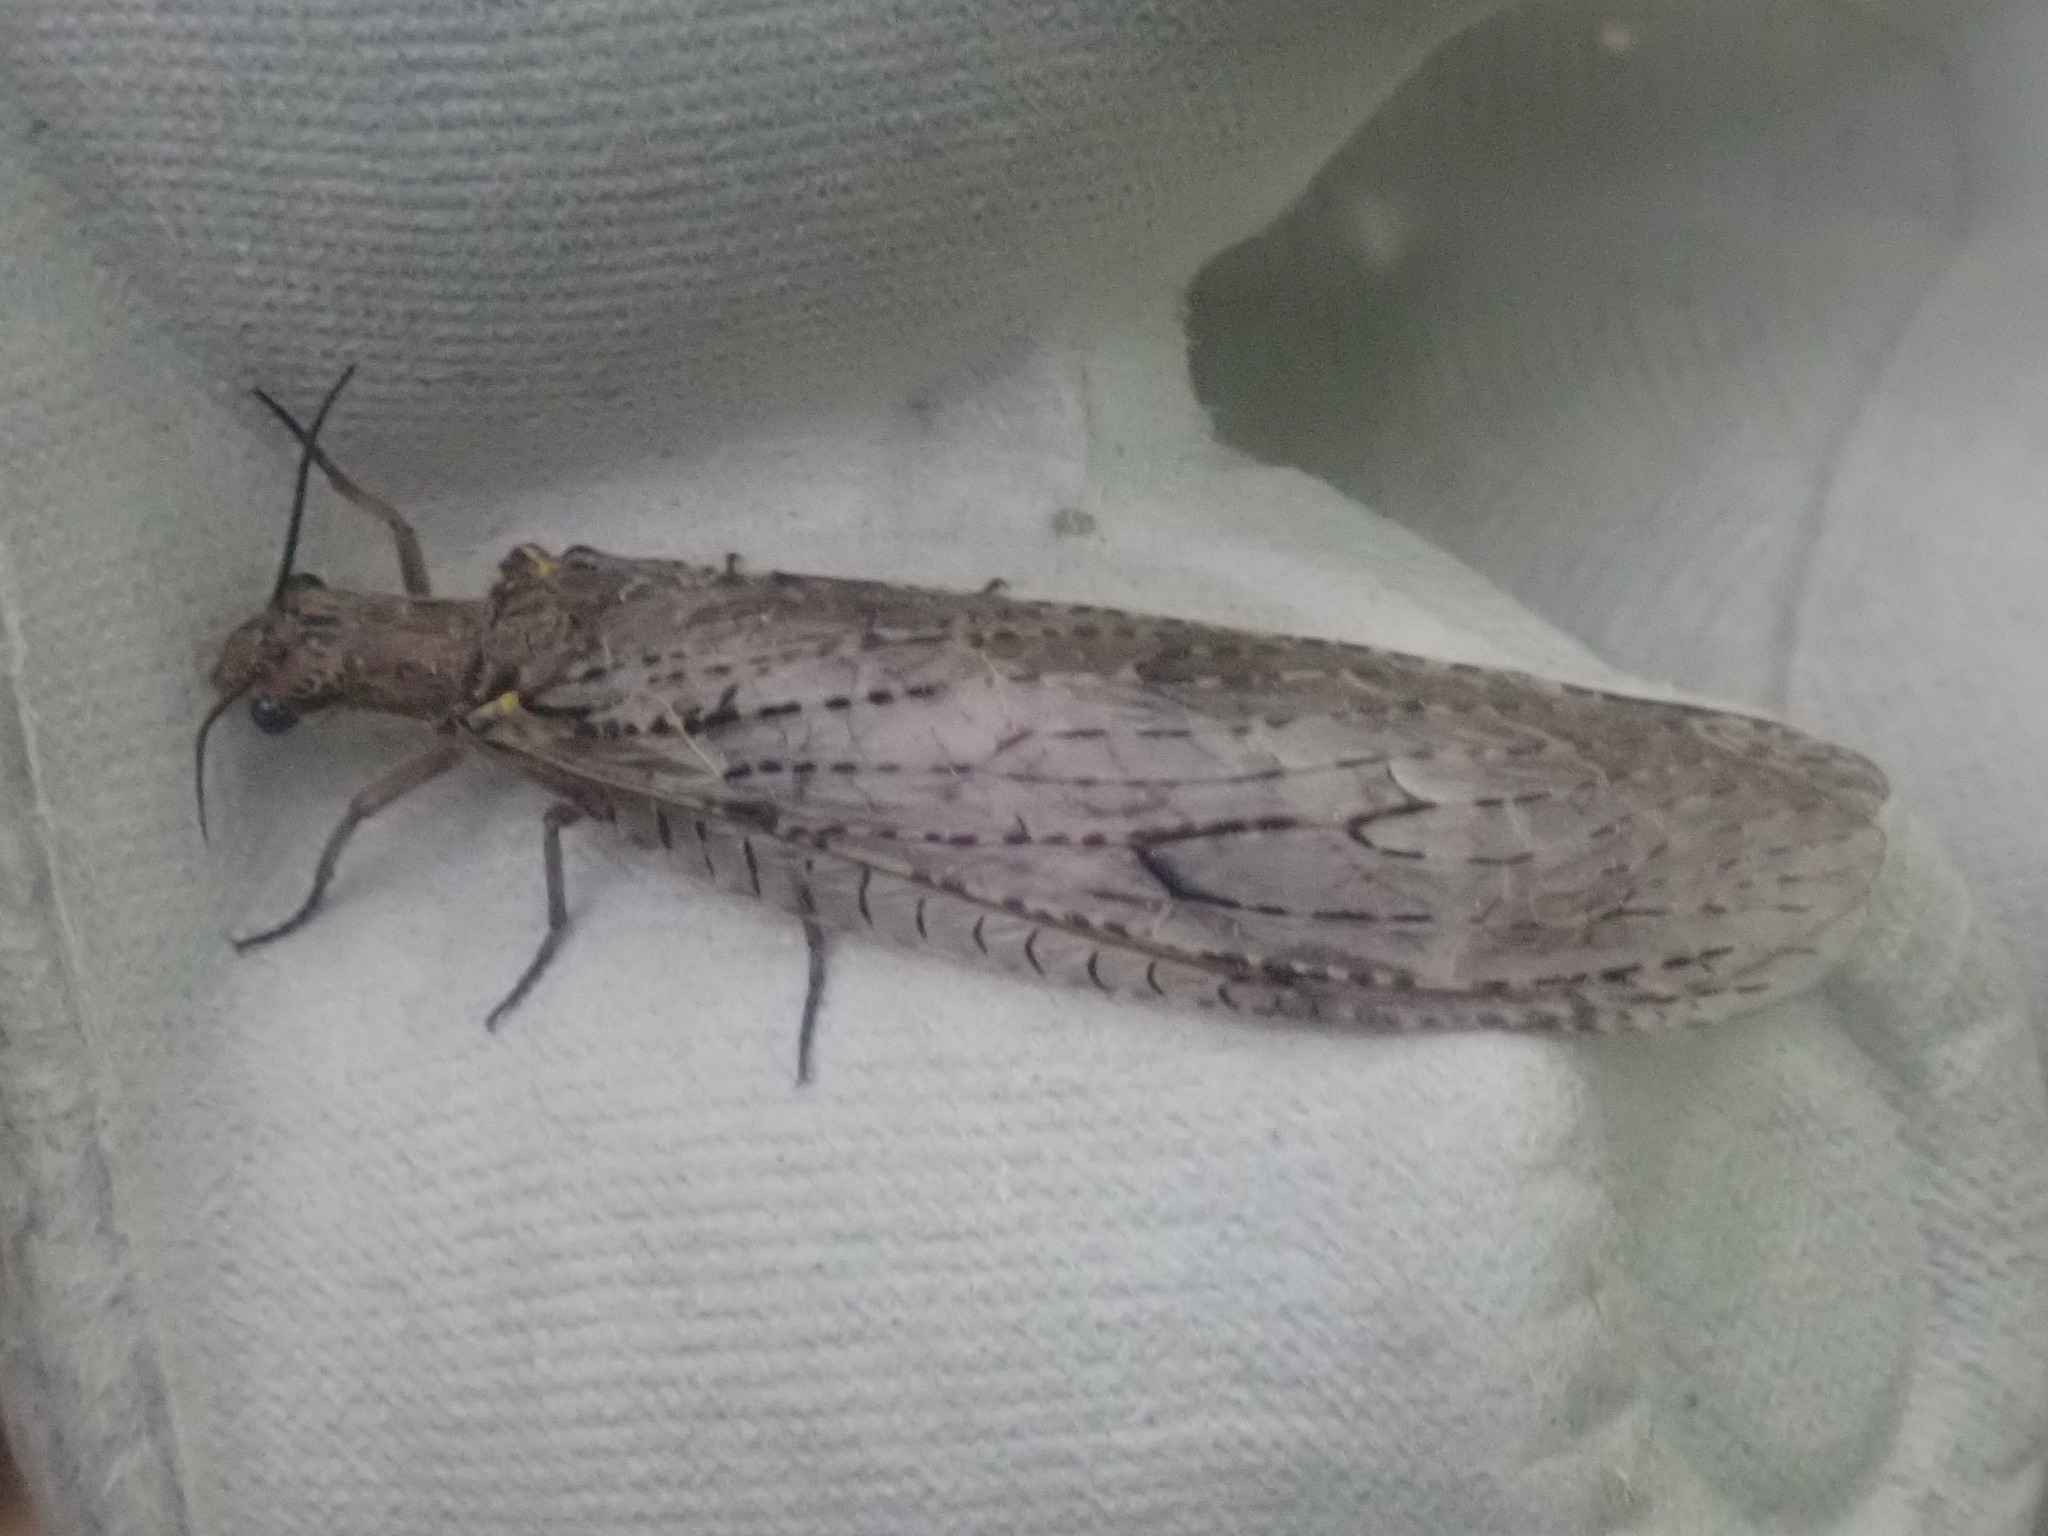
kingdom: Animalia
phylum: Arthropoda
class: Insecta
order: Megaloptera
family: Corydalidae
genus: Chauliodes
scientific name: Chauliodes rastricornis
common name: Spring fishfly
